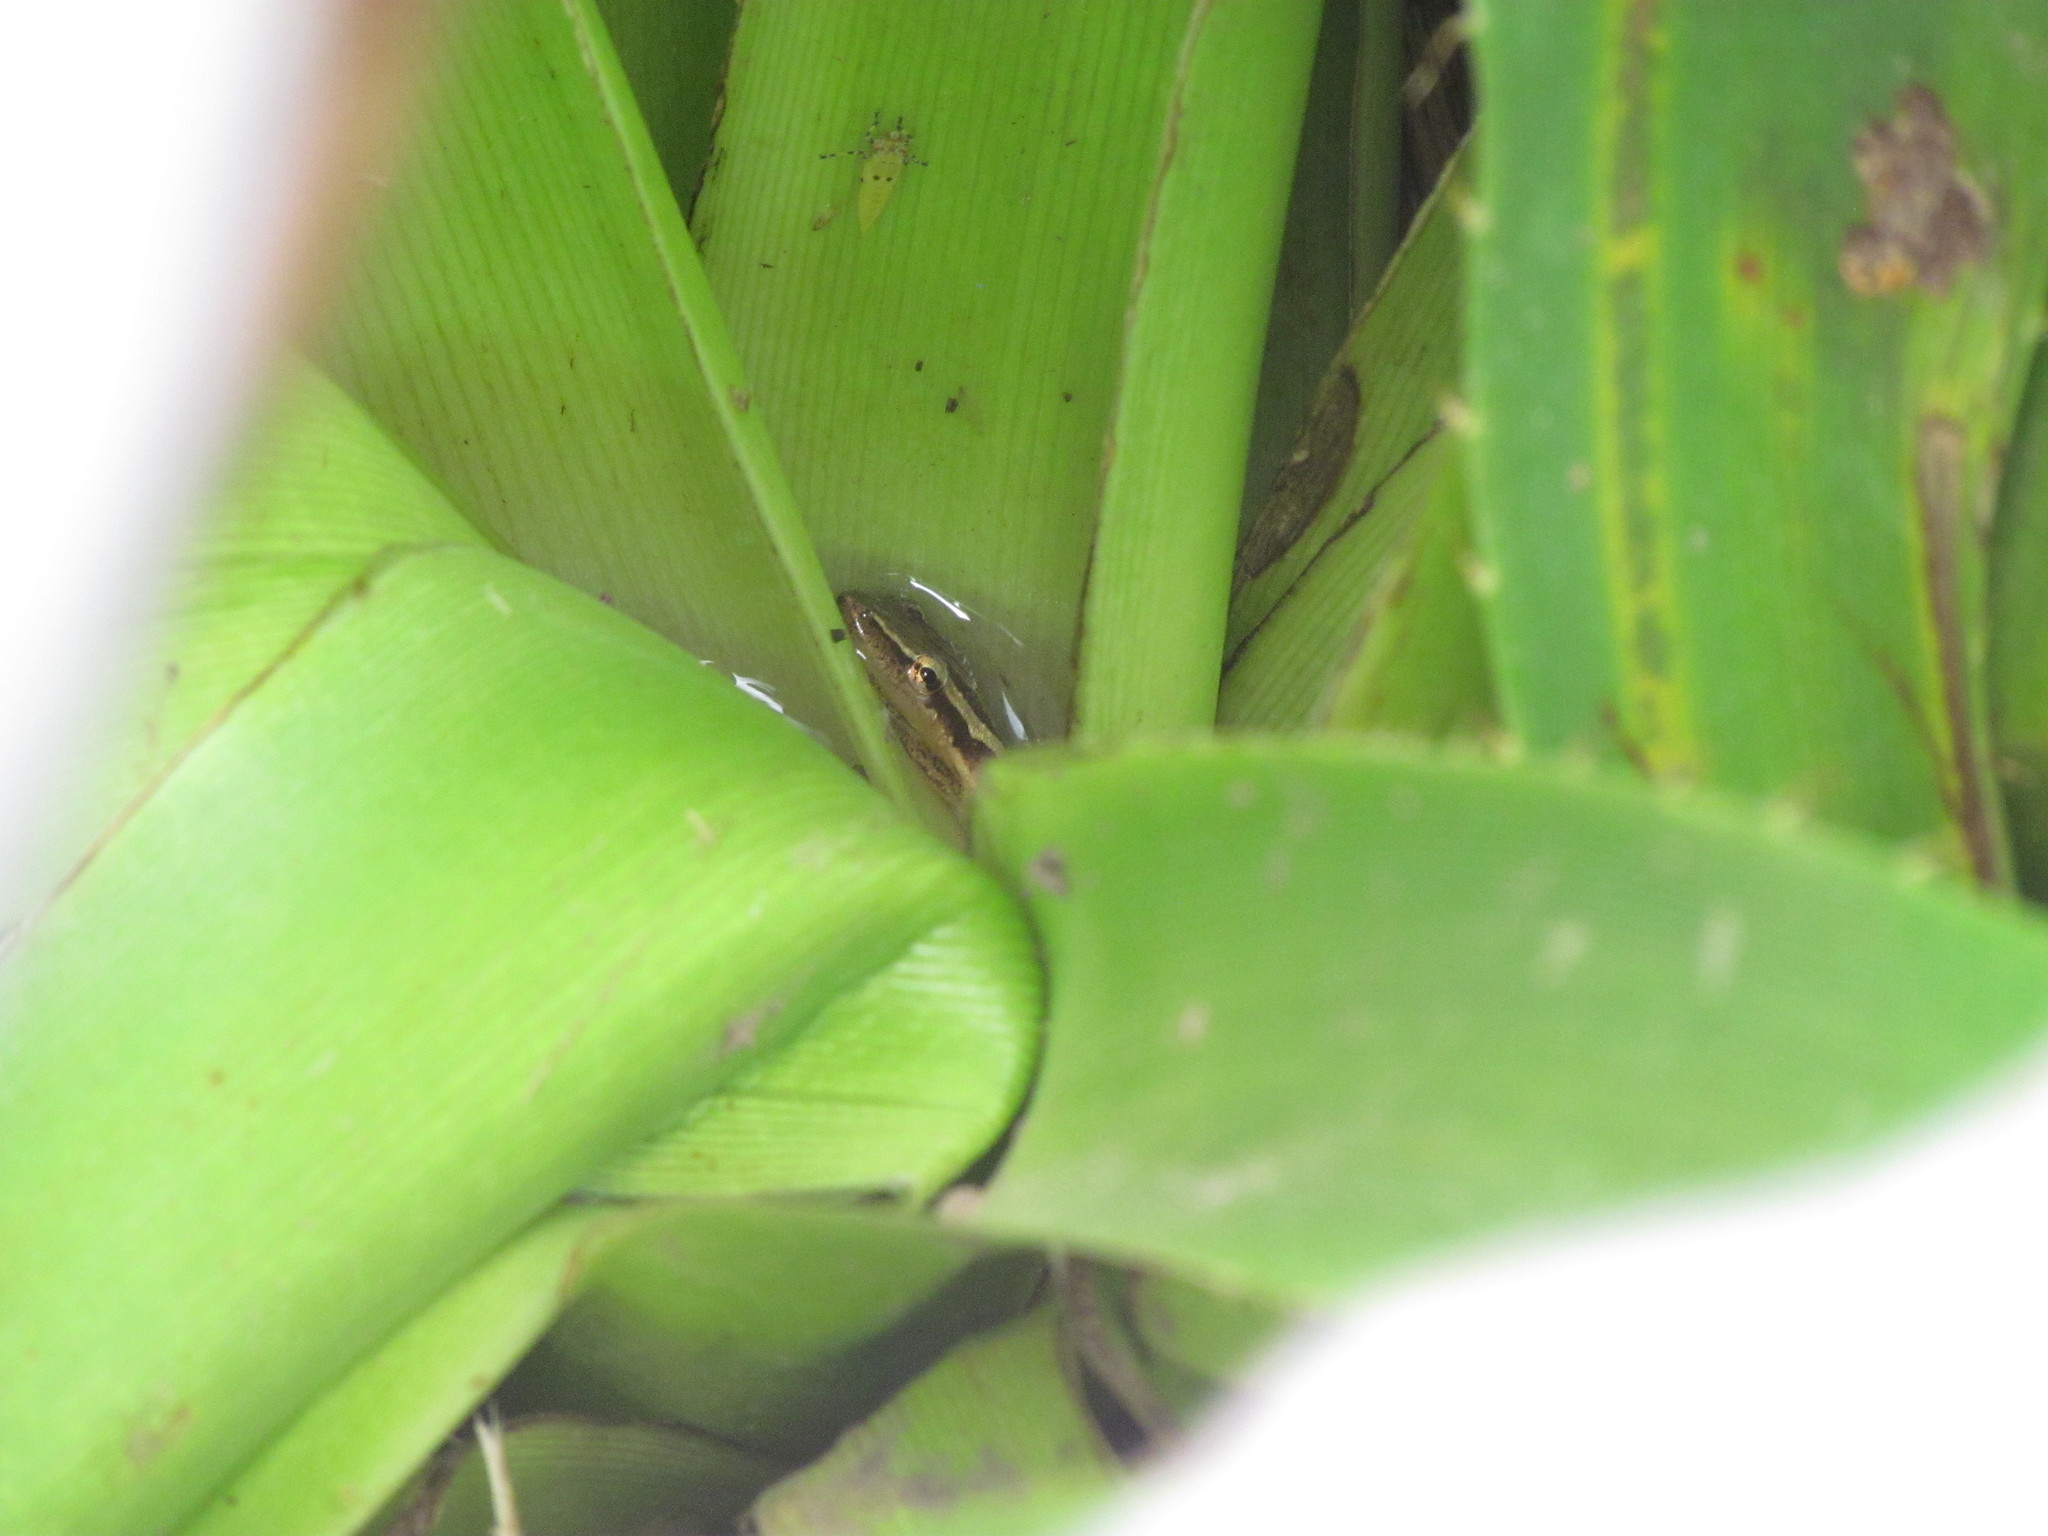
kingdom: Animalia
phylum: Chordata
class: Amphibia
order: Anura
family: Hylidae
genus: Scinax
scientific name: Scinax squalirostris
